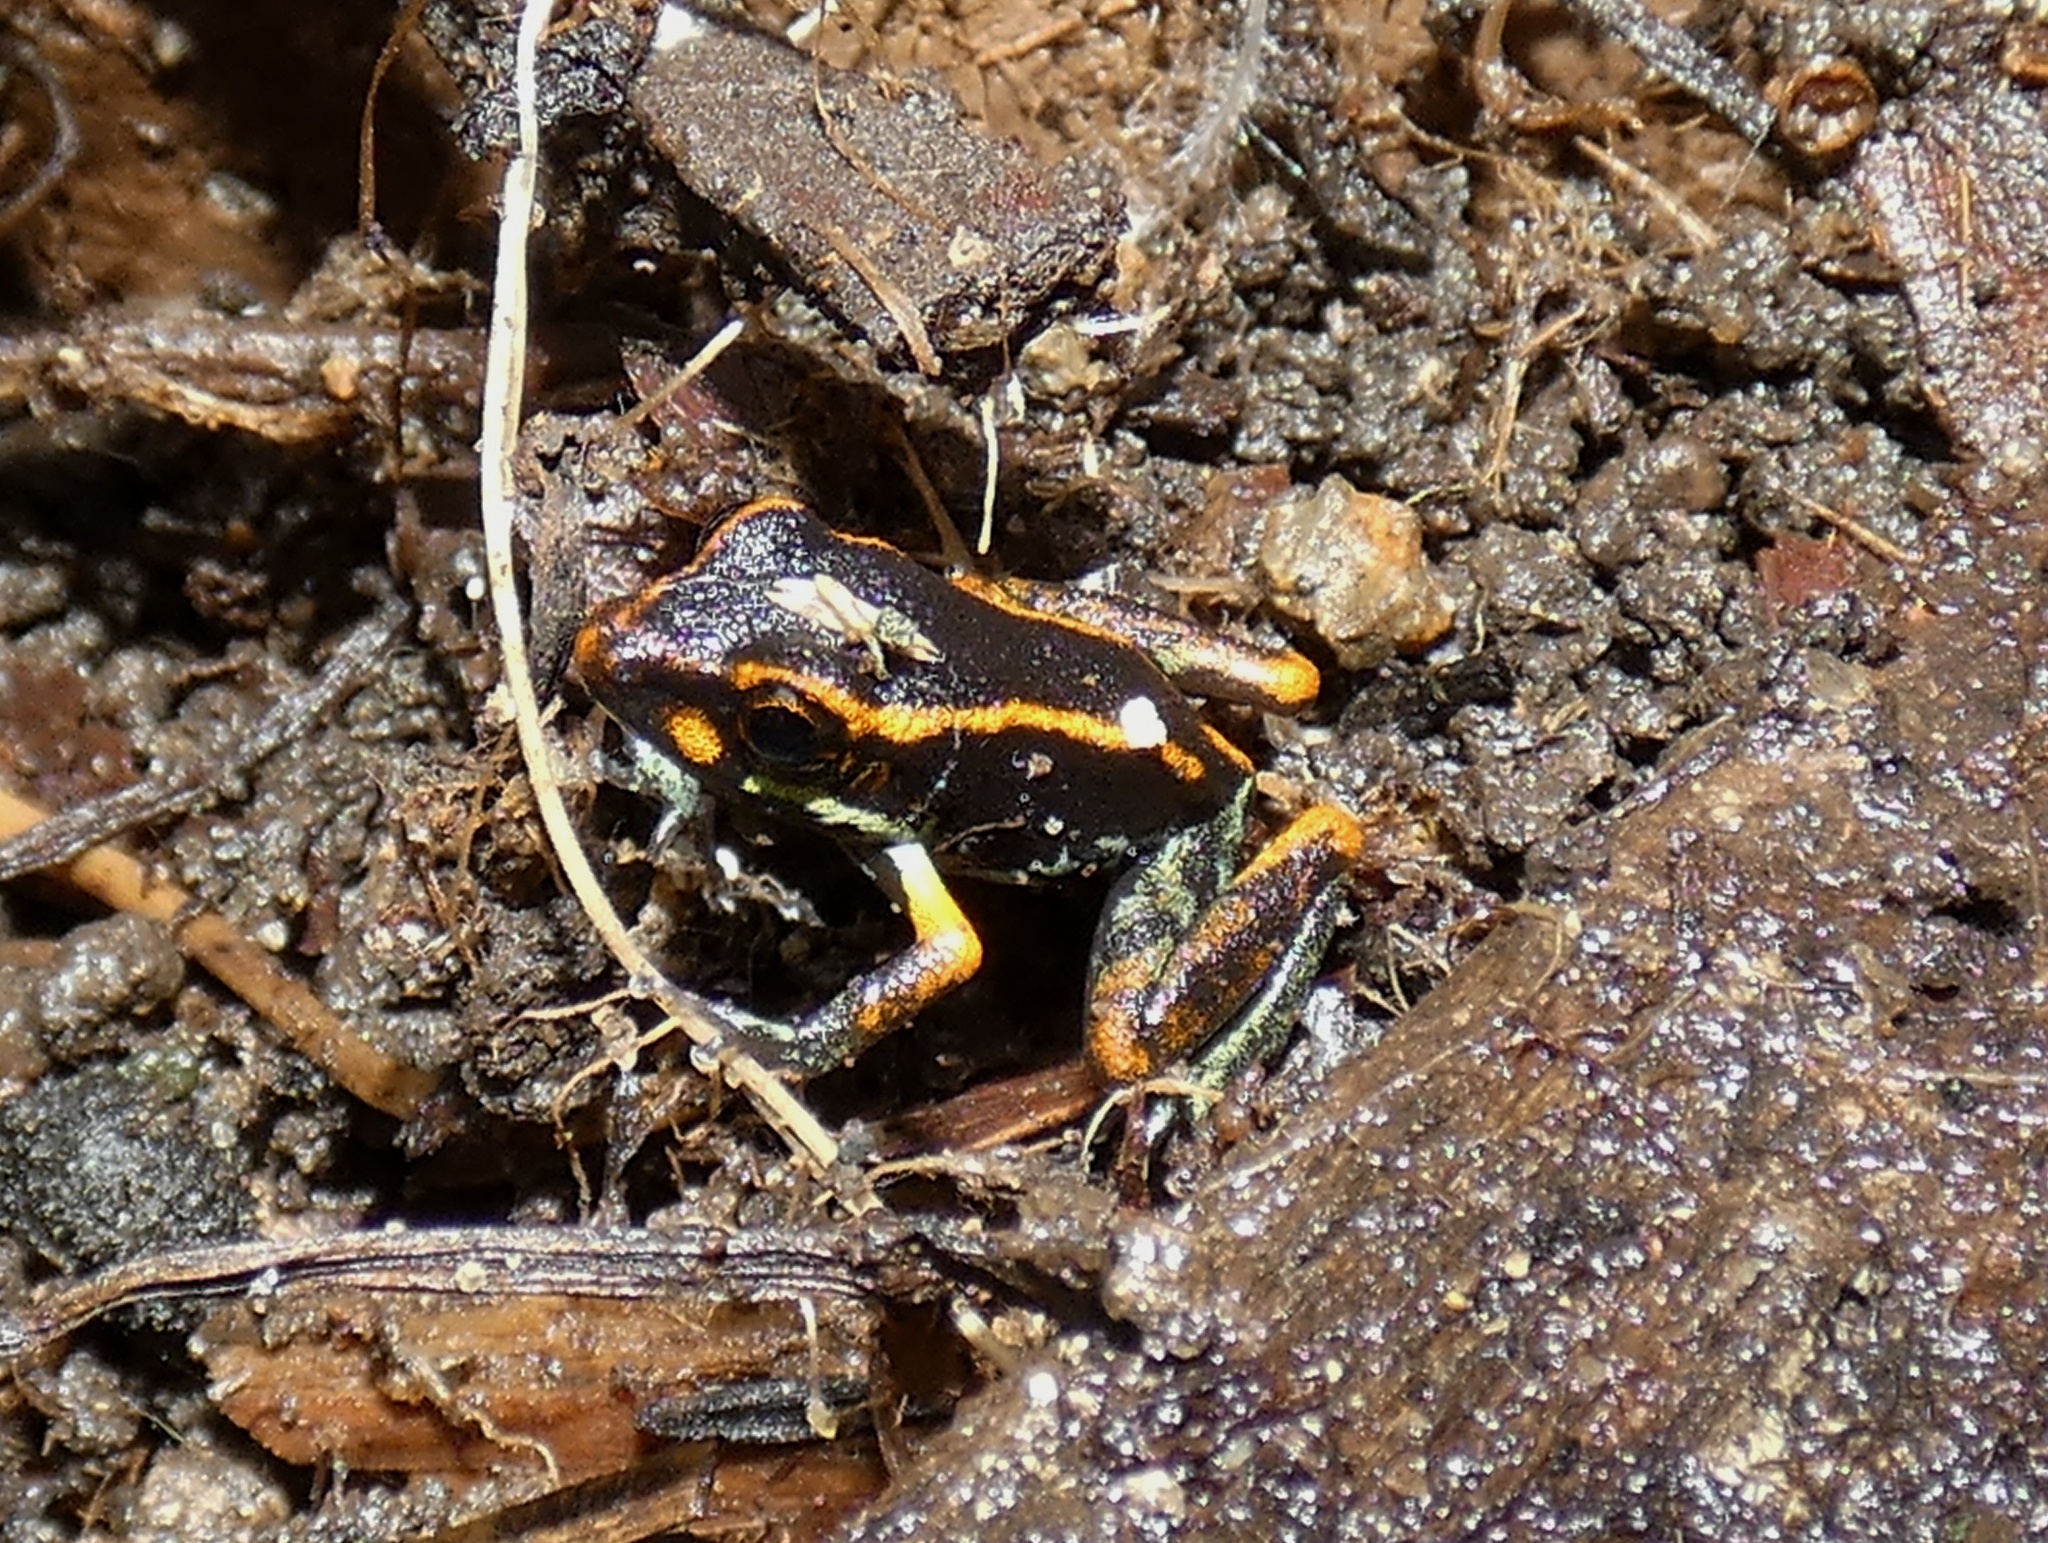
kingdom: Animalia
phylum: Chordata
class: Amphibia
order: Anura
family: Craugastoridae
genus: Pristimantis
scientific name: Pristimantis gaigei
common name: Fort randolph robber frog
